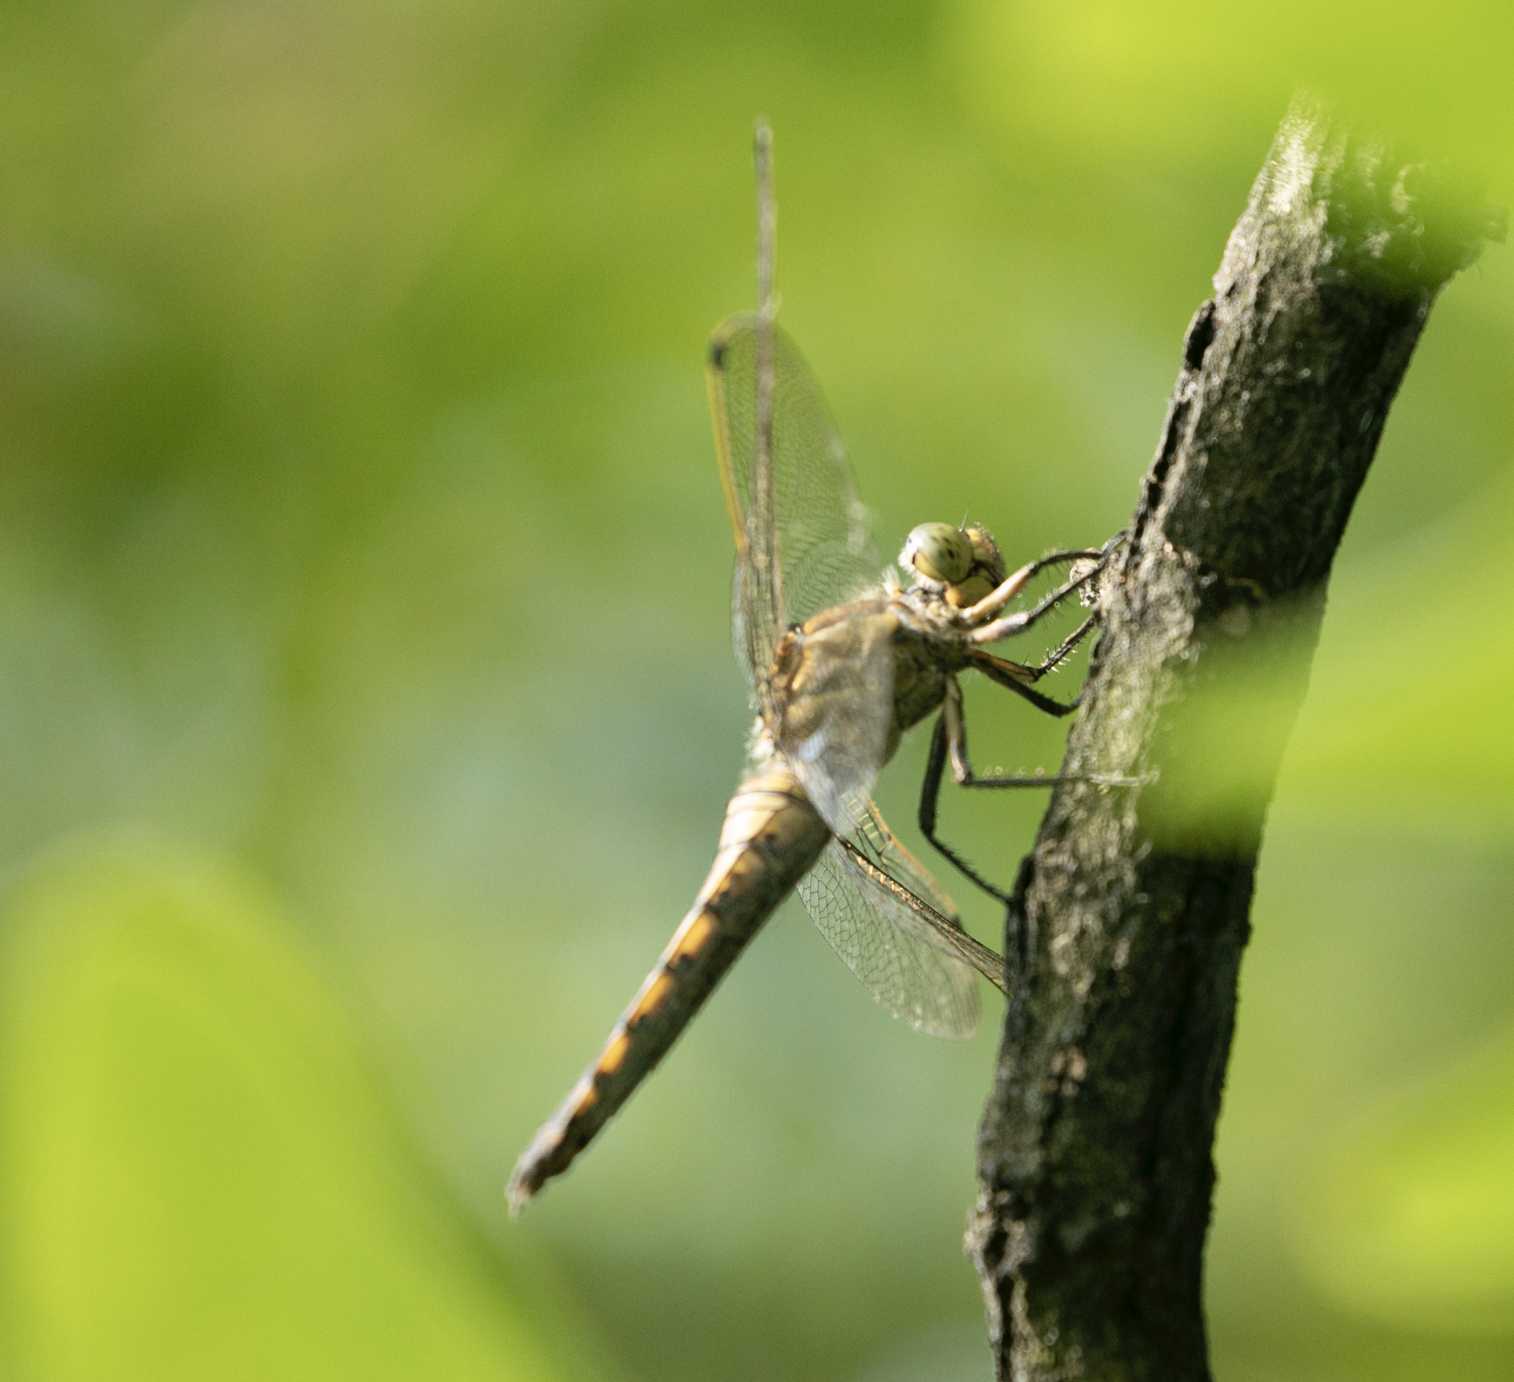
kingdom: Animalia
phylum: Arthropoda
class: Insecta
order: Odonata
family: Libellulidae
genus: Orthetrum
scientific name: Orthetrum cancellatum
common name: Black-tailed skimmer
